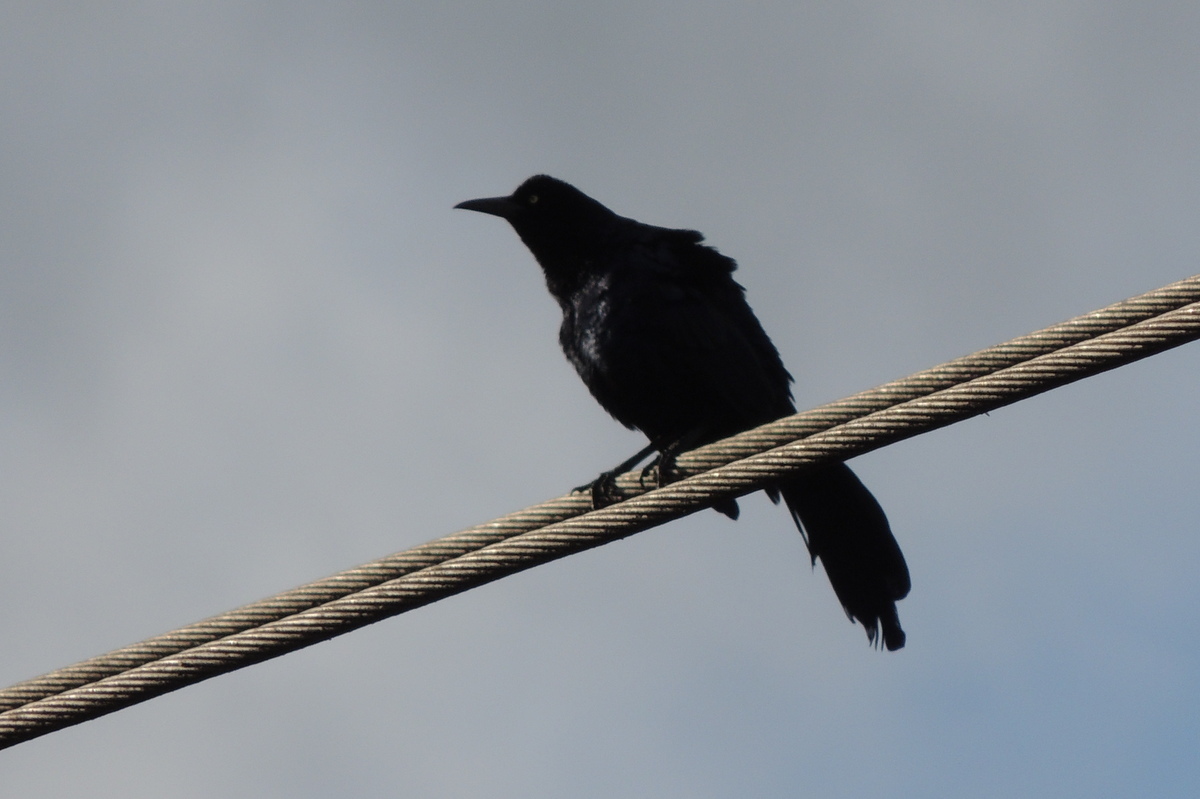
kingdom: Animalia
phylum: Chordata
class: Aves
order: Passeriformes
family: Icteridae
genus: Quiscalus
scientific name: Quiscalus mexicanus
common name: Great-tailed grackle
